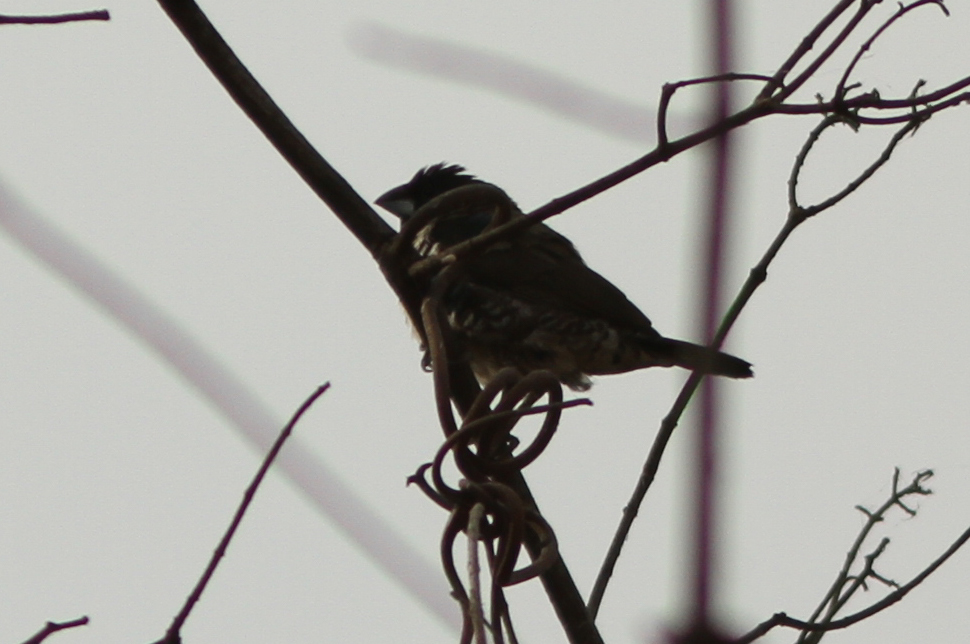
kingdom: Animalia
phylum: Chordata
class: Aves
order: Passeriformes
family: Estrildidae
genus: Lonchura
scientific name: Lonchura cucullata
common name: Bronze mannikin
